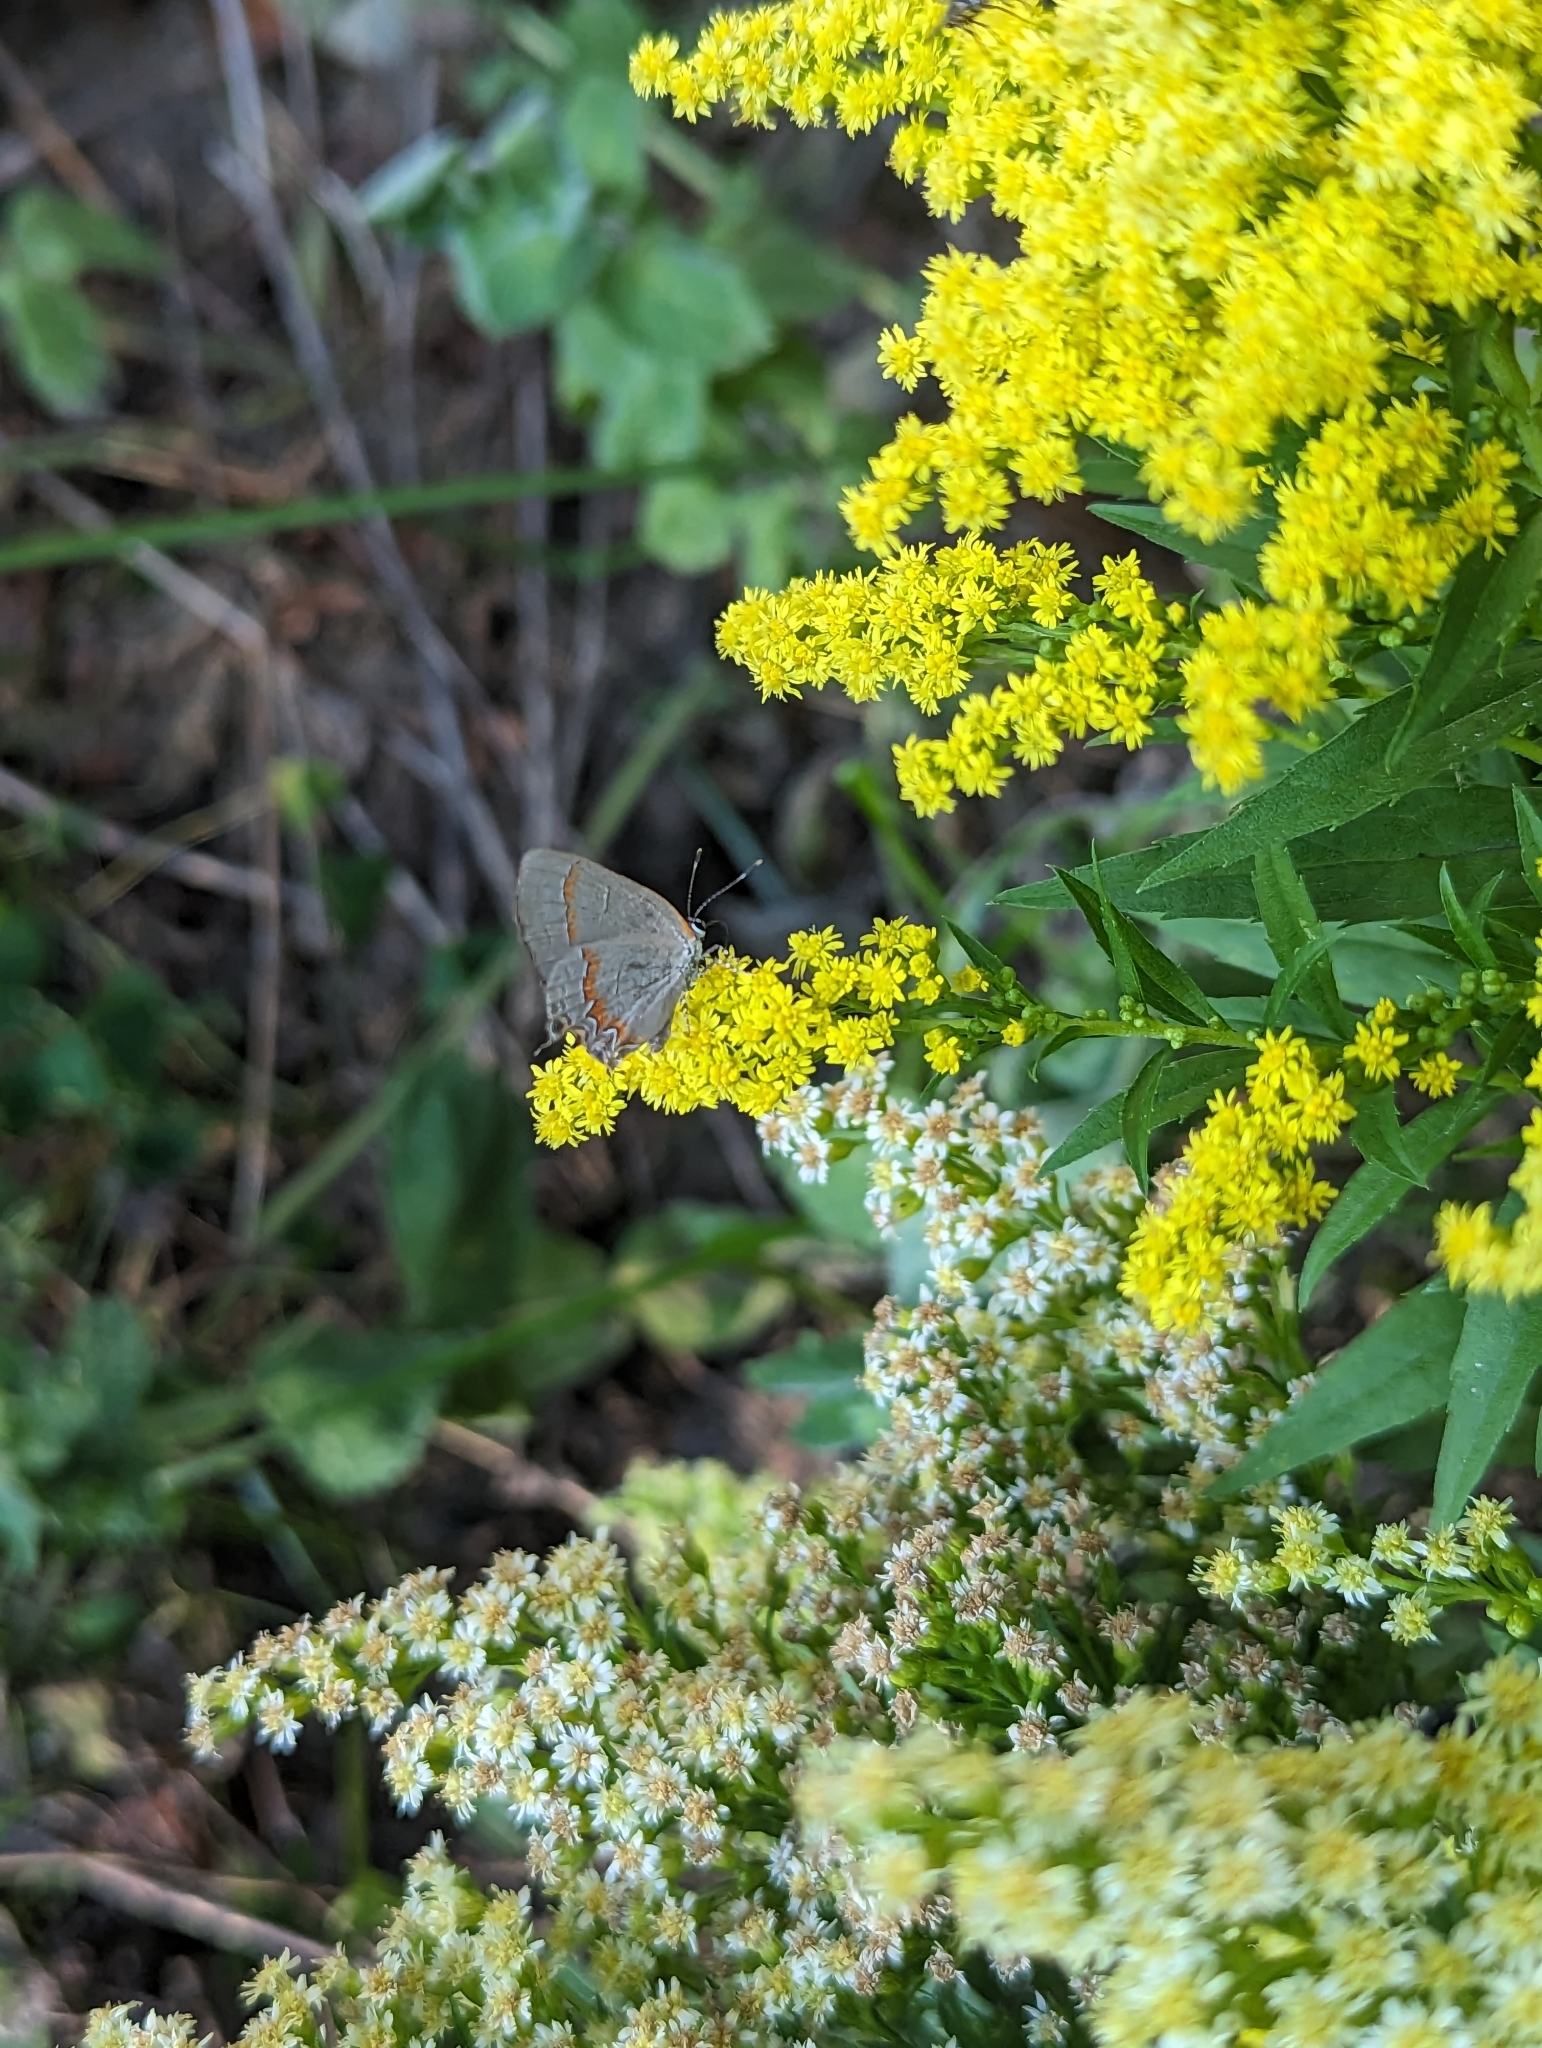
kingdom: Animalia
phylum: Arthropoda
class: Insecta
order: Lepidoptera
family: Lycaenidae
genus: Calycopis
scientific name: Calycopis cecrops
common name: Red-banded hairstreak
